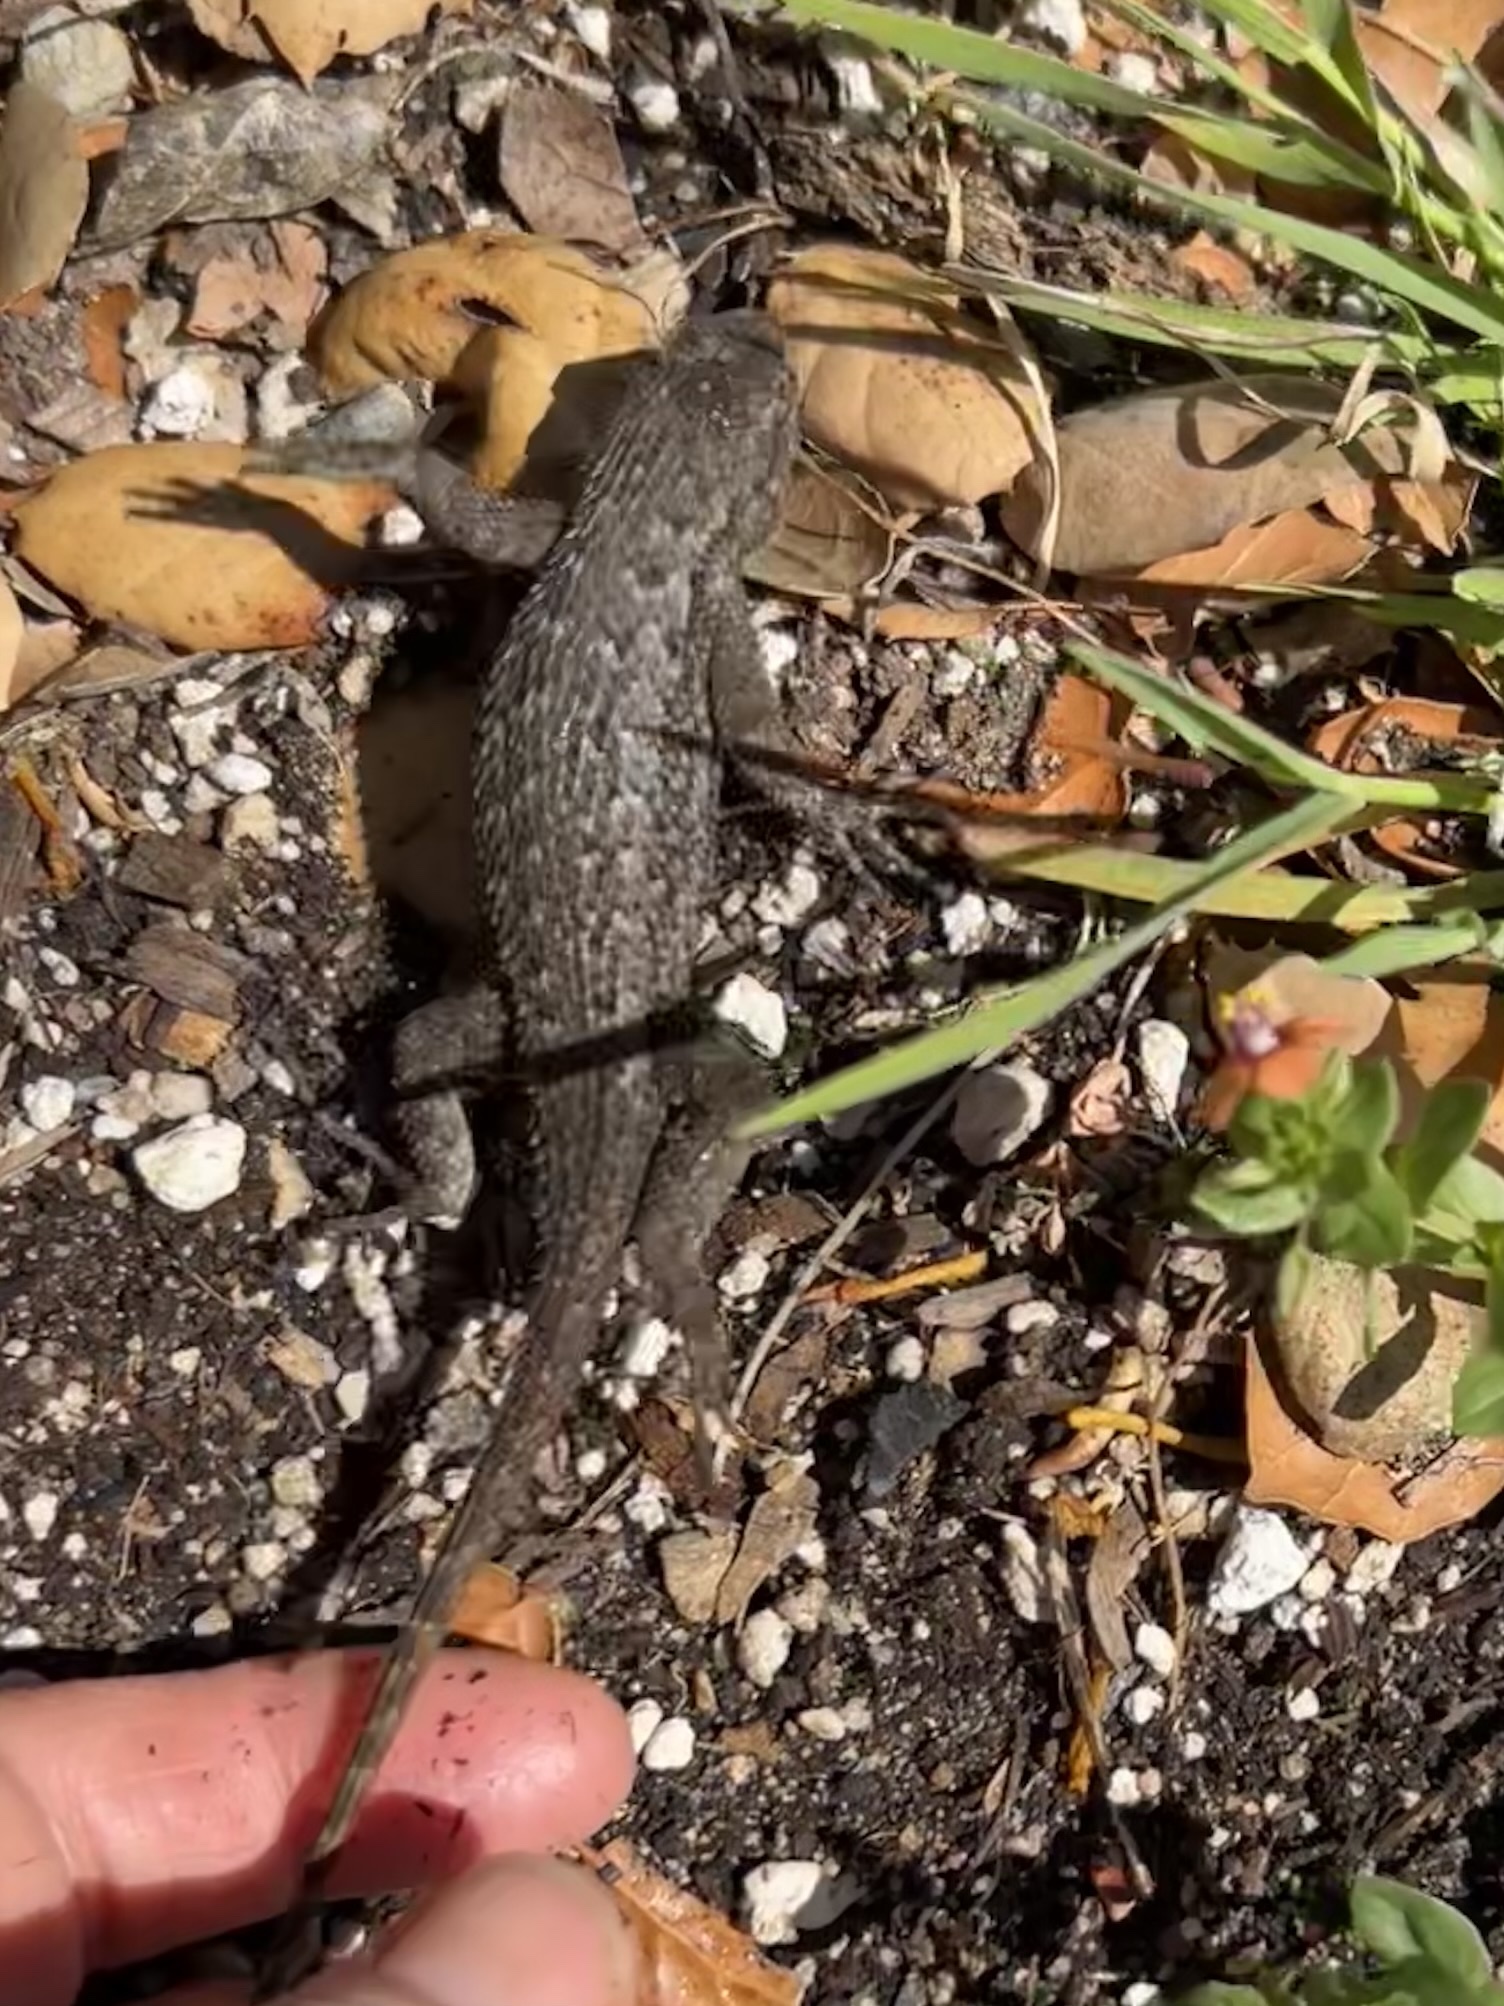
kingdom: Animalia
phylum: Chordata
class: Squamata
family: Phrynosomatidae
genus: Sceloporus
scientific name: Sceloporus occidentalis
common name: Western fence lizard
